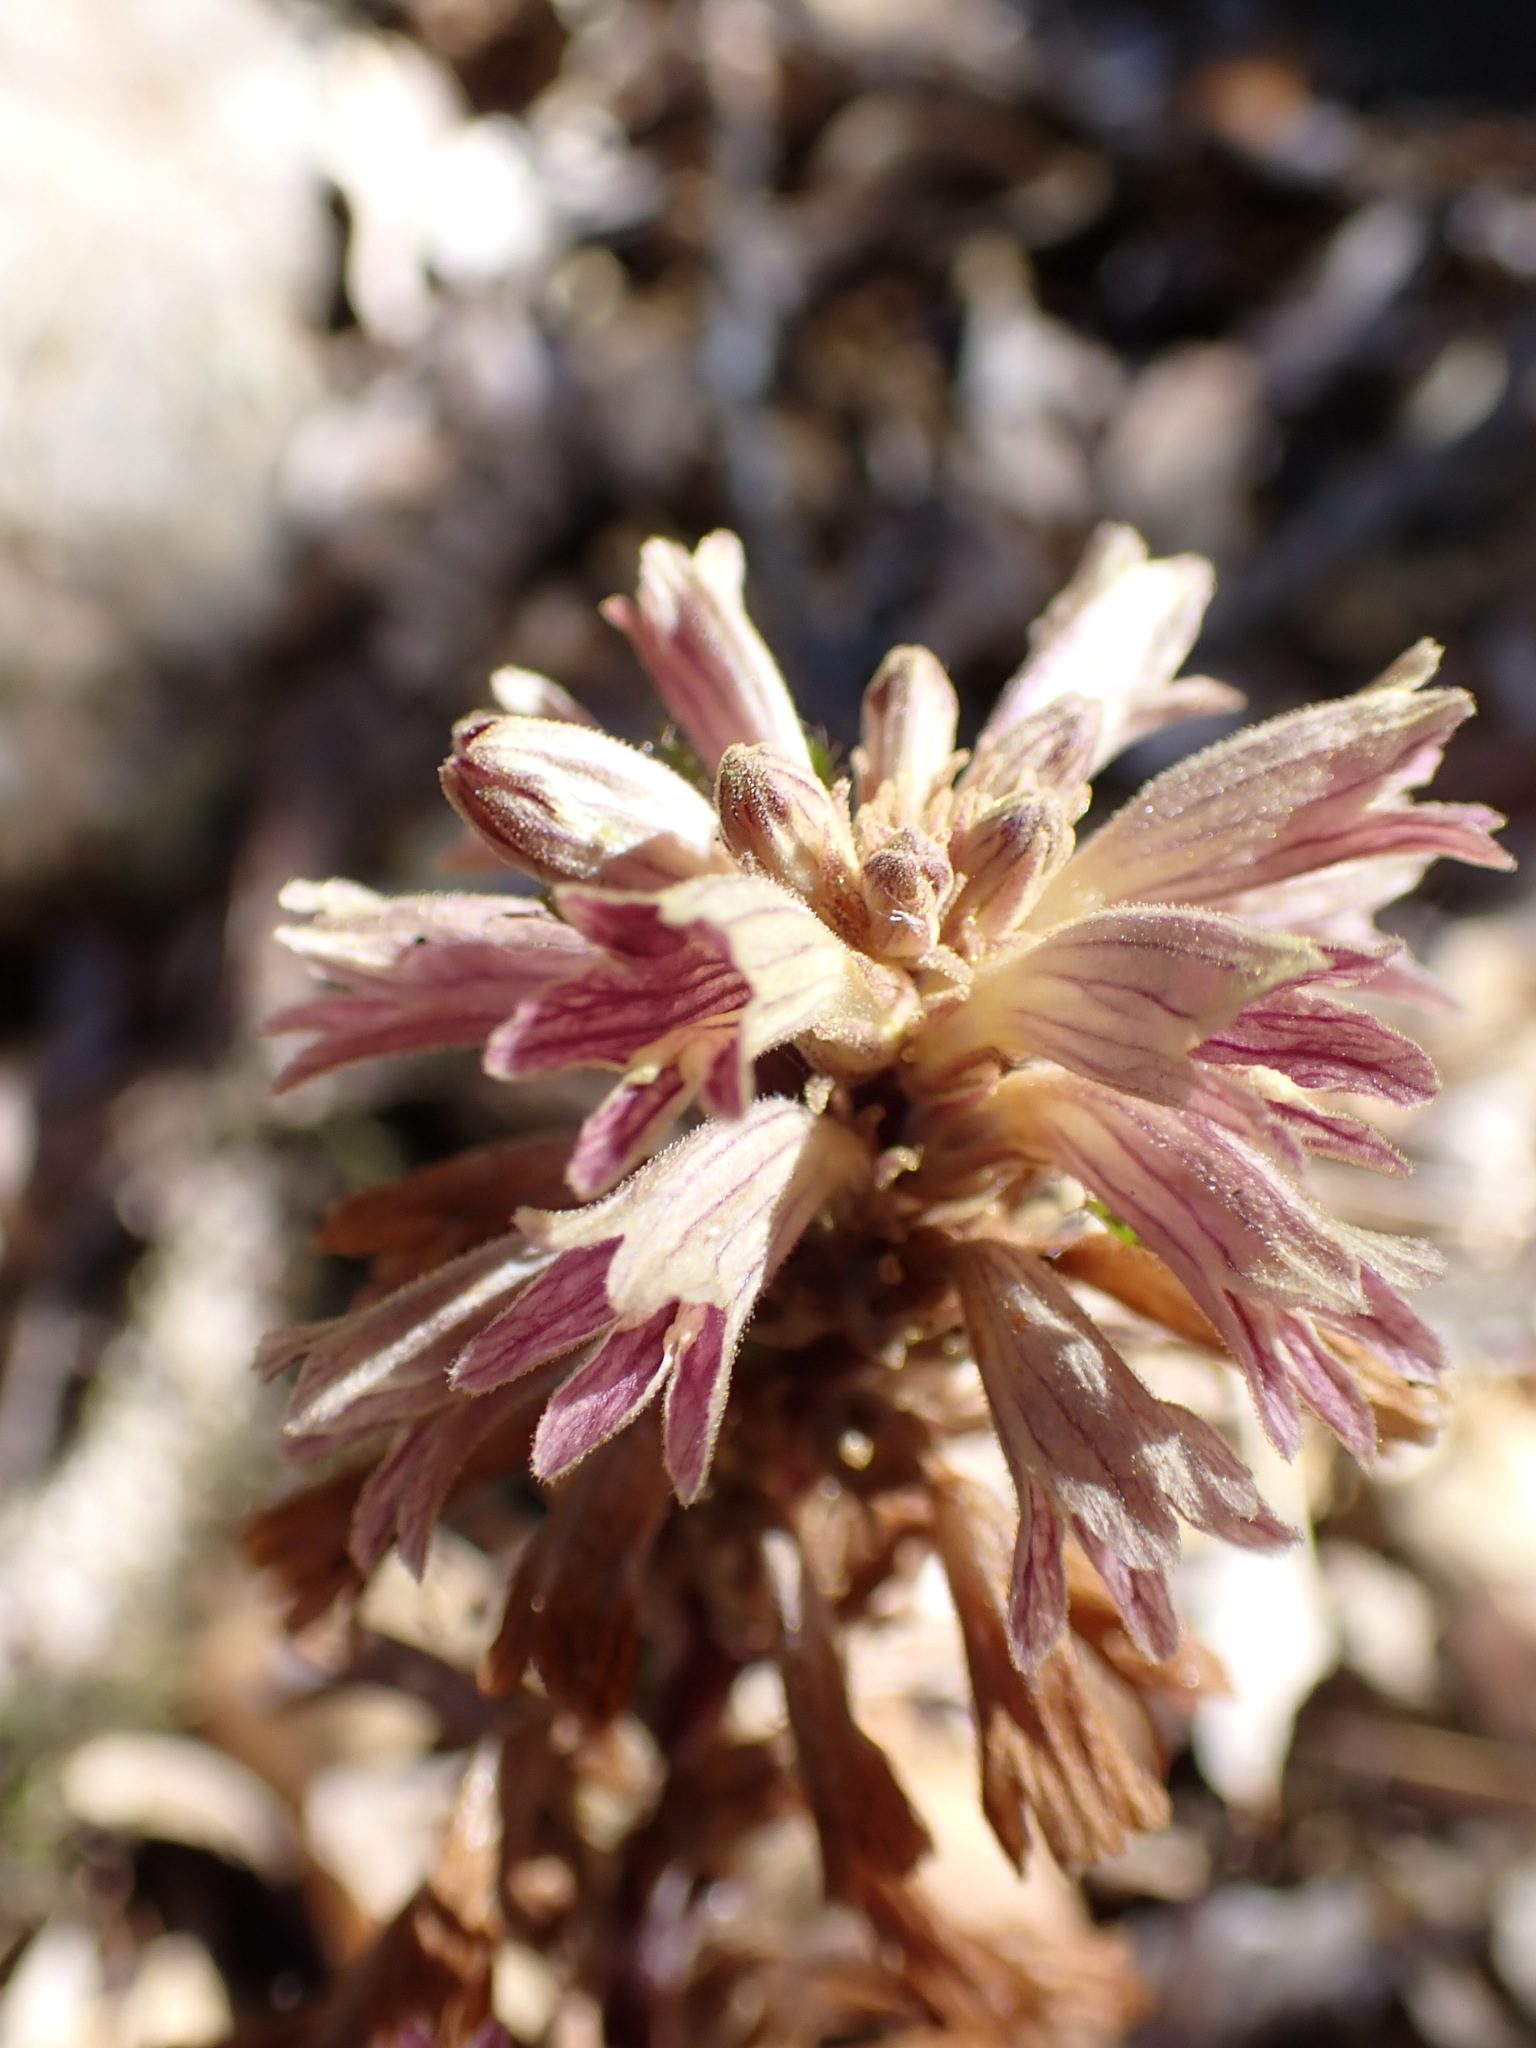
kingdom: Plantae
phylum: Tracheophyta
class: Magnoliopsida
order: Lamiales
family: Orobanchaceae
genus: Aphyllon
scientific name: Aphyllon pinorum
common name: Conifer broomrape
